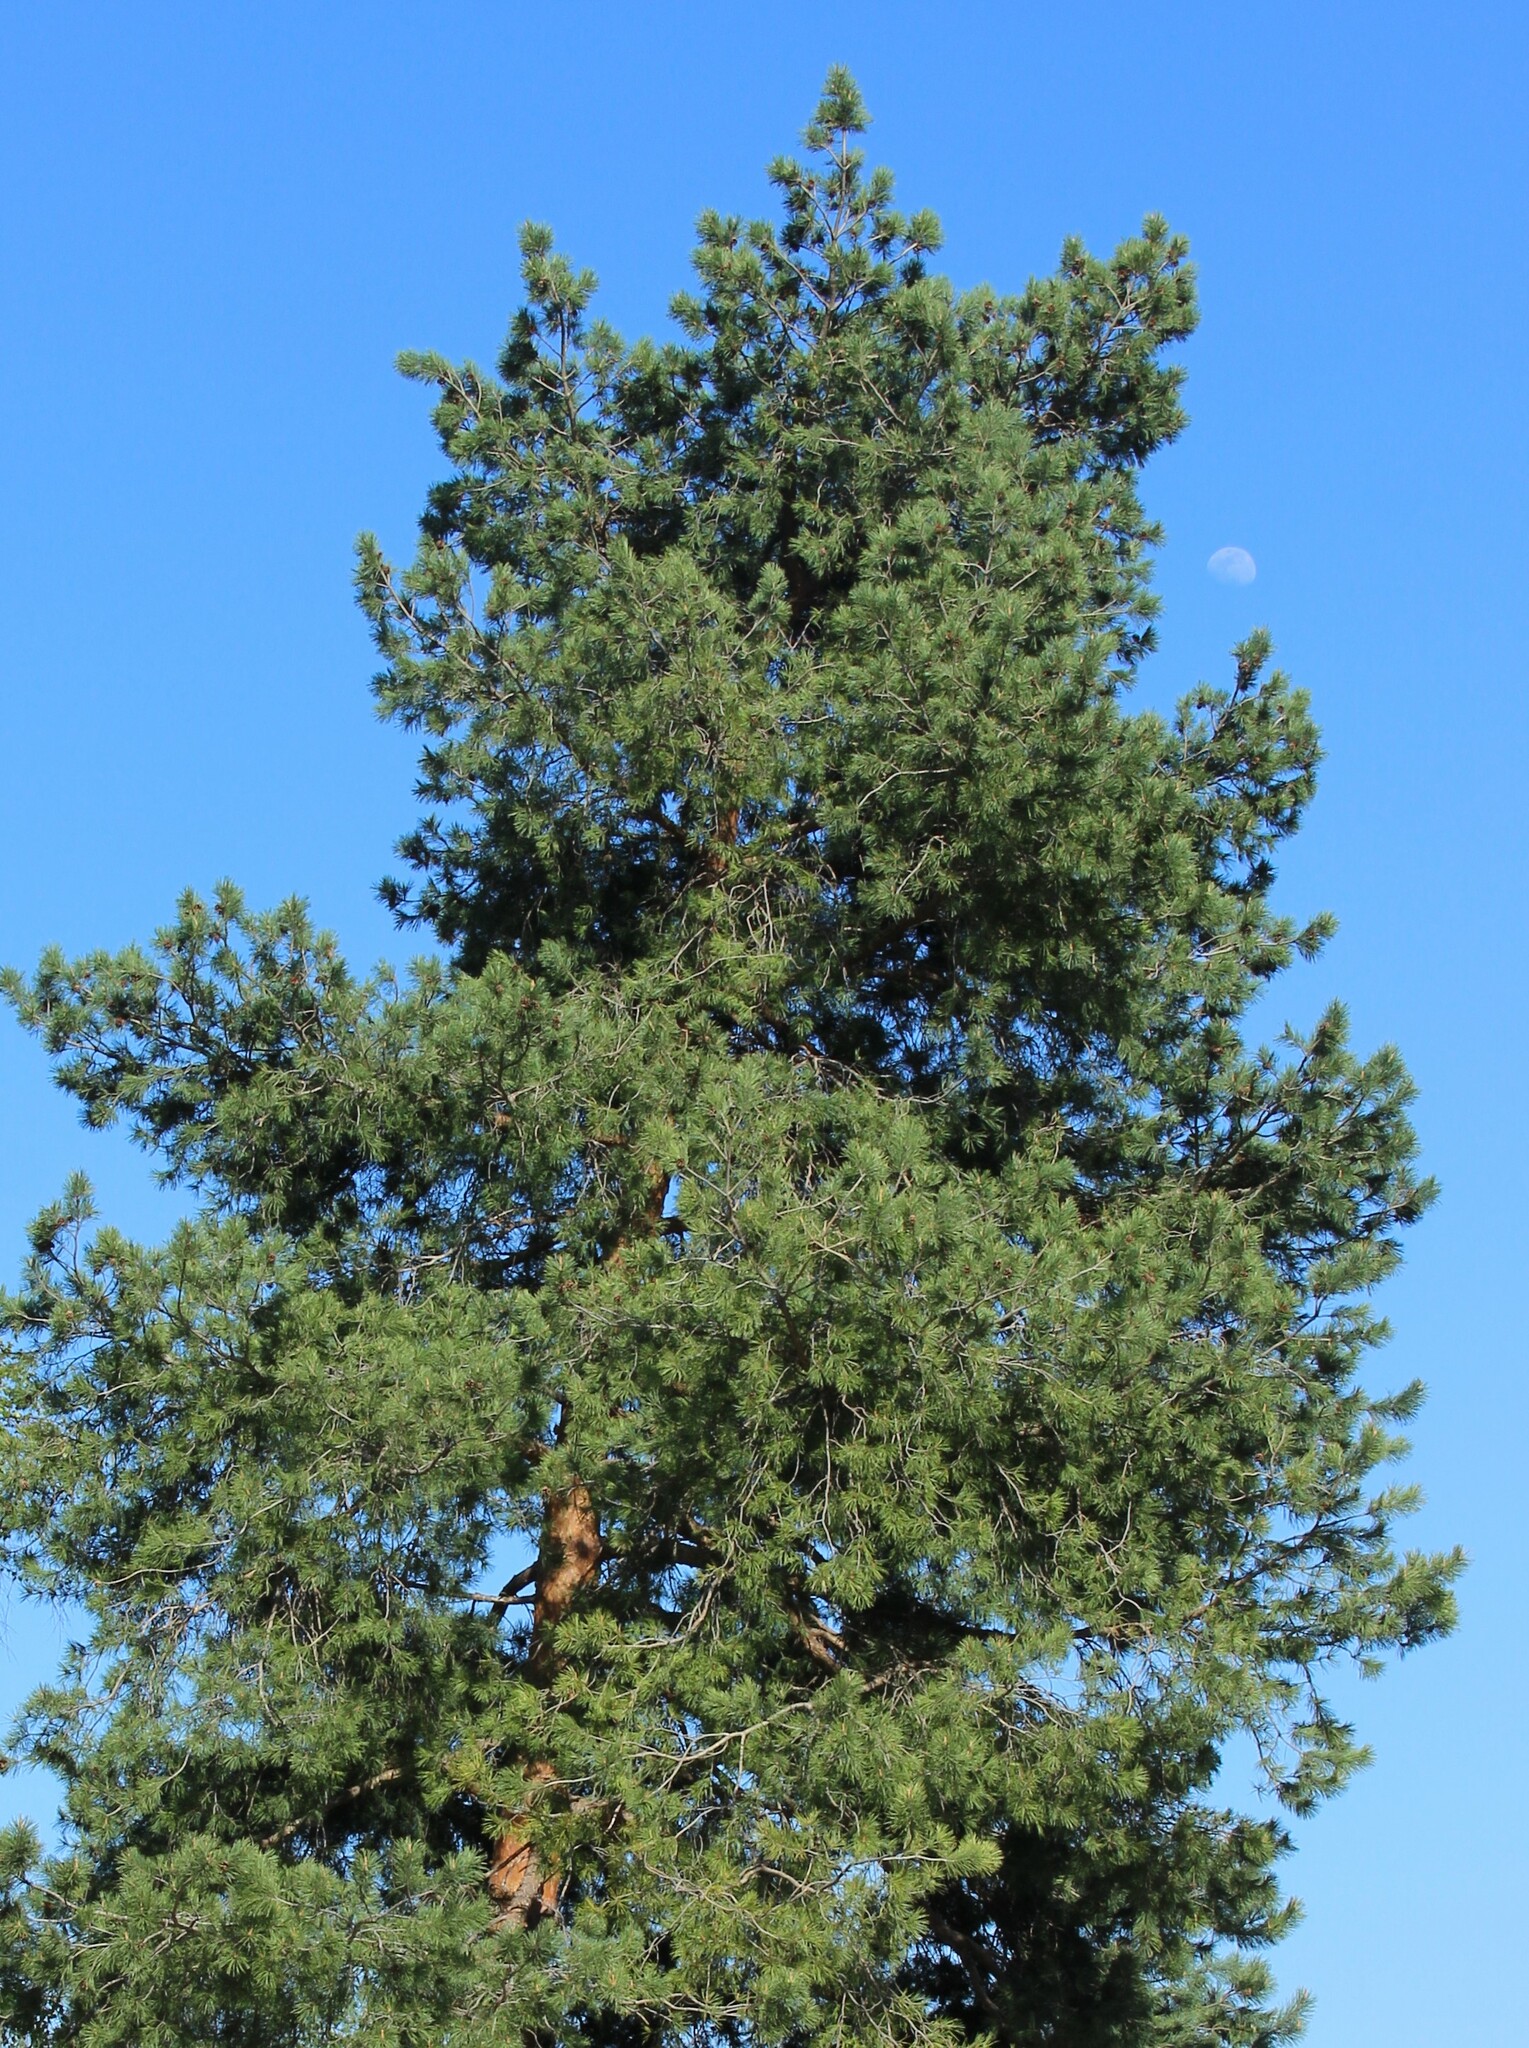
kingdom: Plantae
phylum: Tracheophyta
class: Pinopsida
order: Pinales
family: Pinaceae
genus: Pinus
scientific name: Pinus sylvestris
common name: Scots pine
